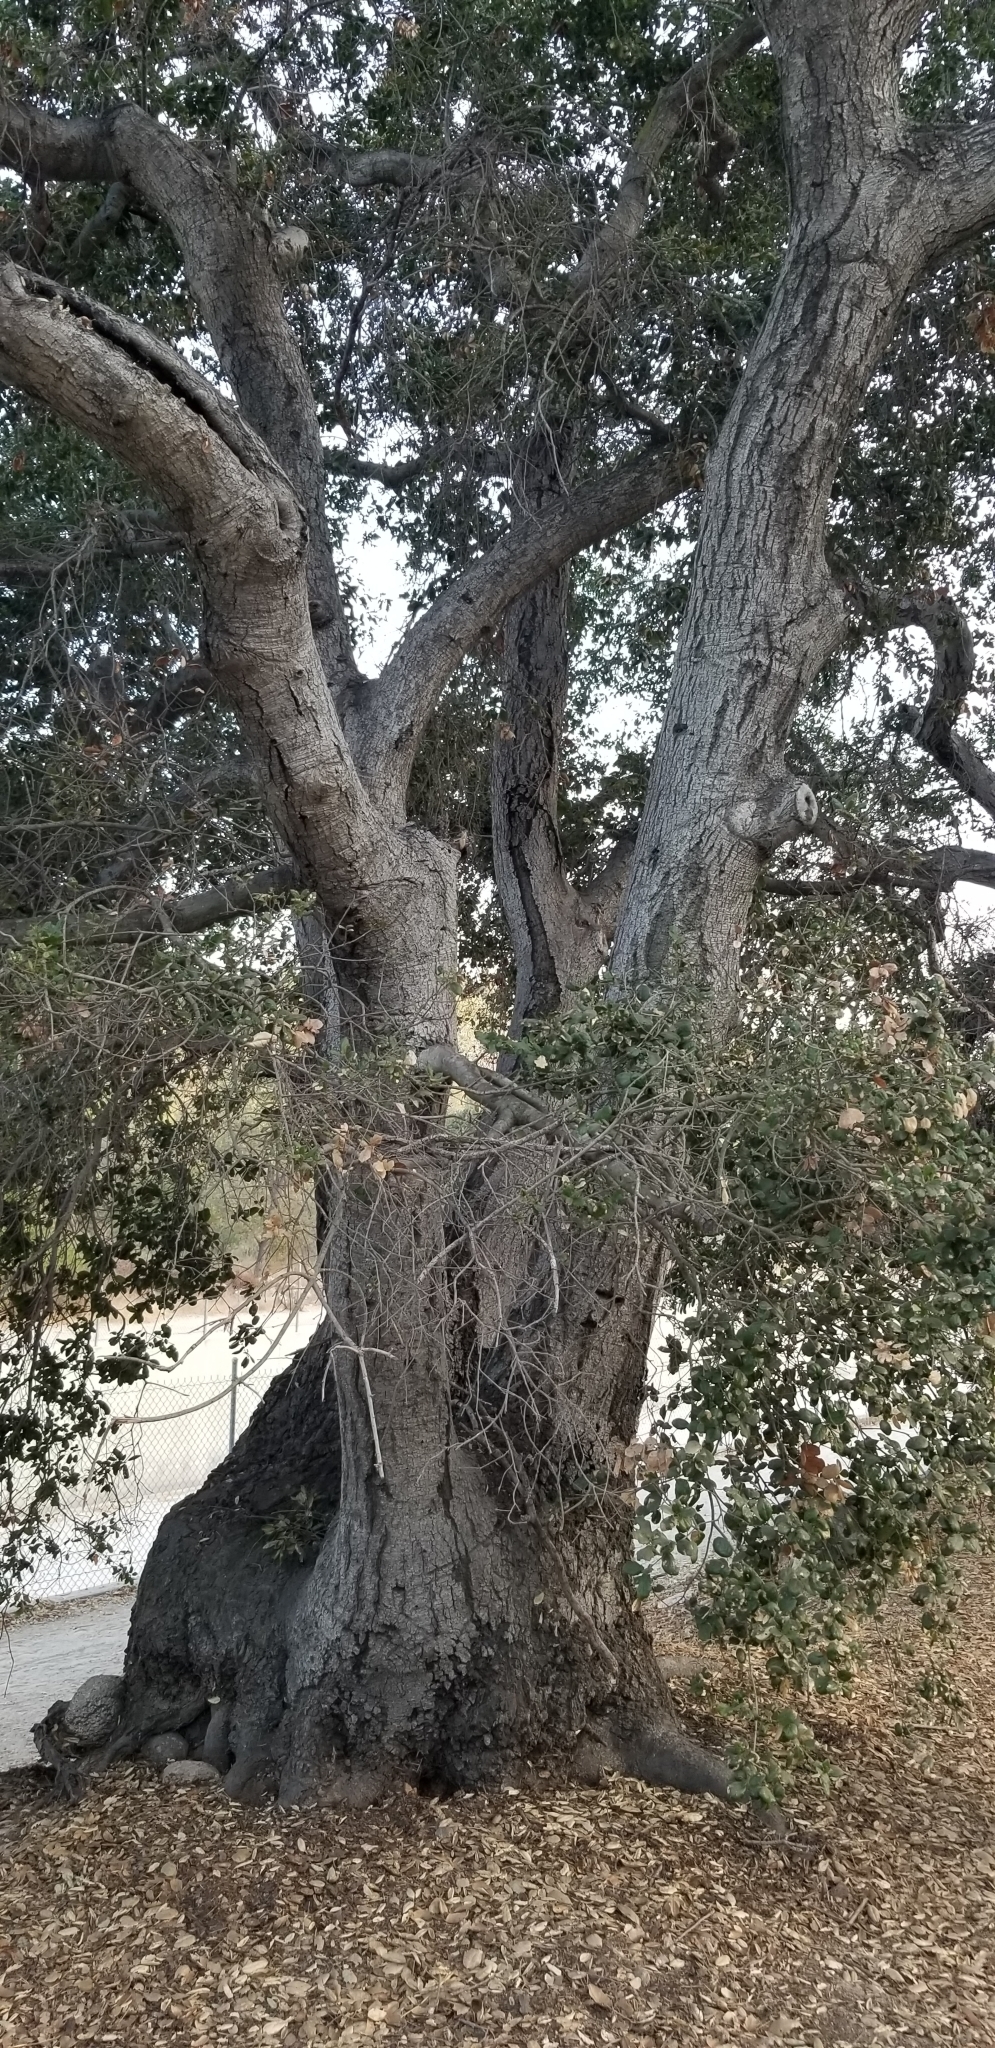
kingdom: Plantae
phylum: Tracheophyta
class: Magnoliopsida
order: Fagales
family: Fagaceae
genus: Quercus
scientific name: Quercus agrifolia
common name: California live oak
